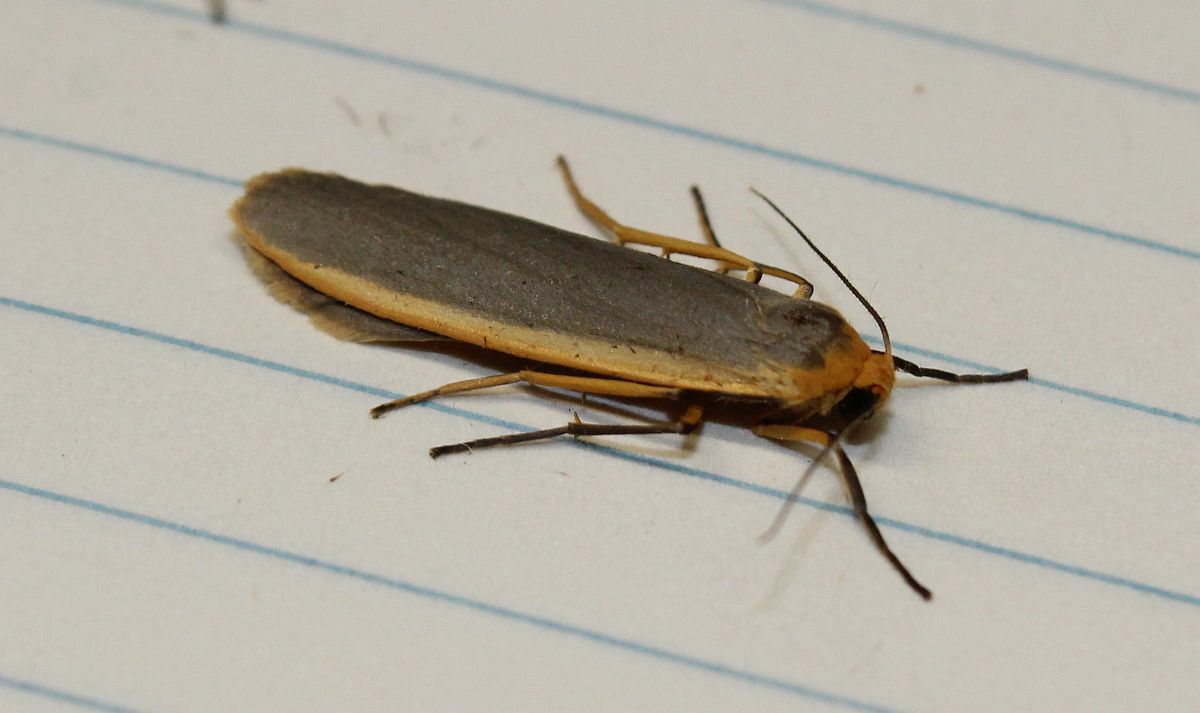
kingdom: Animalia
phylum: Arthropoda
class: Insecta
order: Lepidoptera
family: Erebidae
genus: Nyea
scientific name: Nyea lurideola
